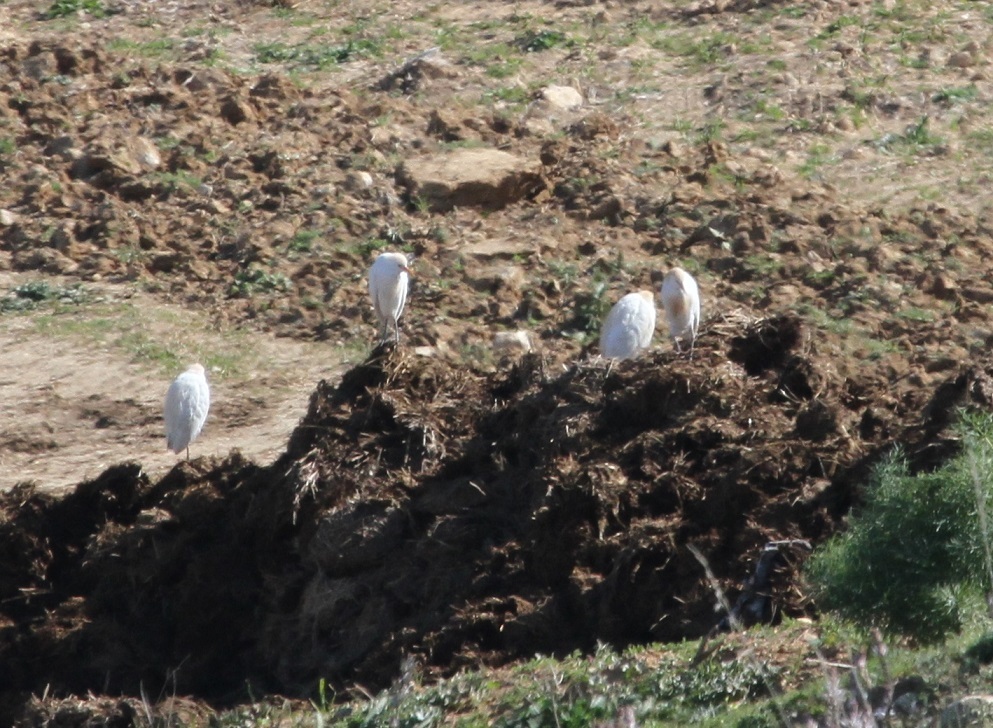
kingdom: Animalia
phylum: Chordata
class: Aves
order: Pelecaniformes
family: Ardeidae
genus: Bubulcus
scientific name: Bubulcus ibis
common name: Cattle egret
